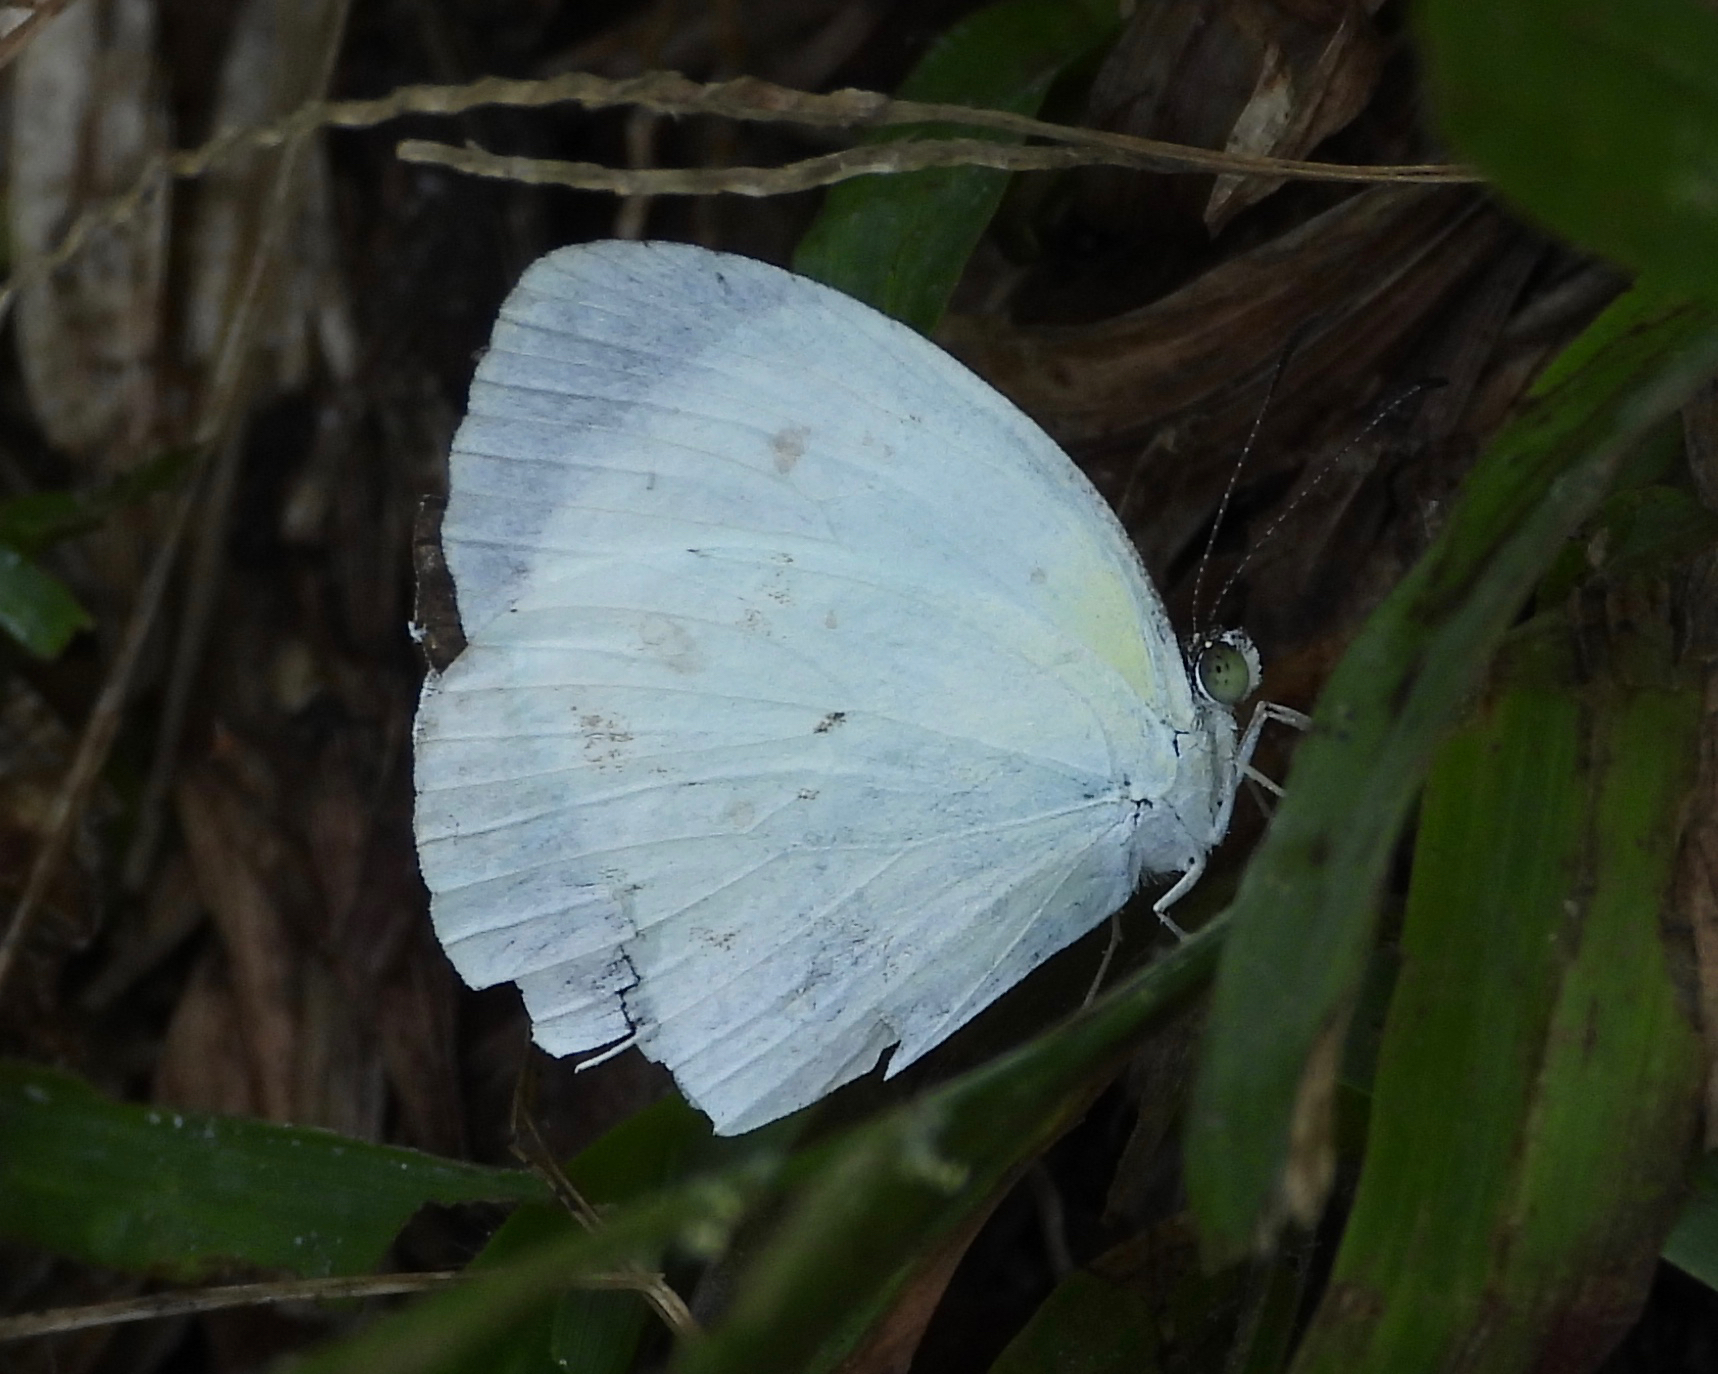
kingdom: Animalia
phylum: Arthropoda
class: Insecta
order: Lepidoptera
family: Pieridae
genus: Abaeis
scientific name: Abaeis albula
